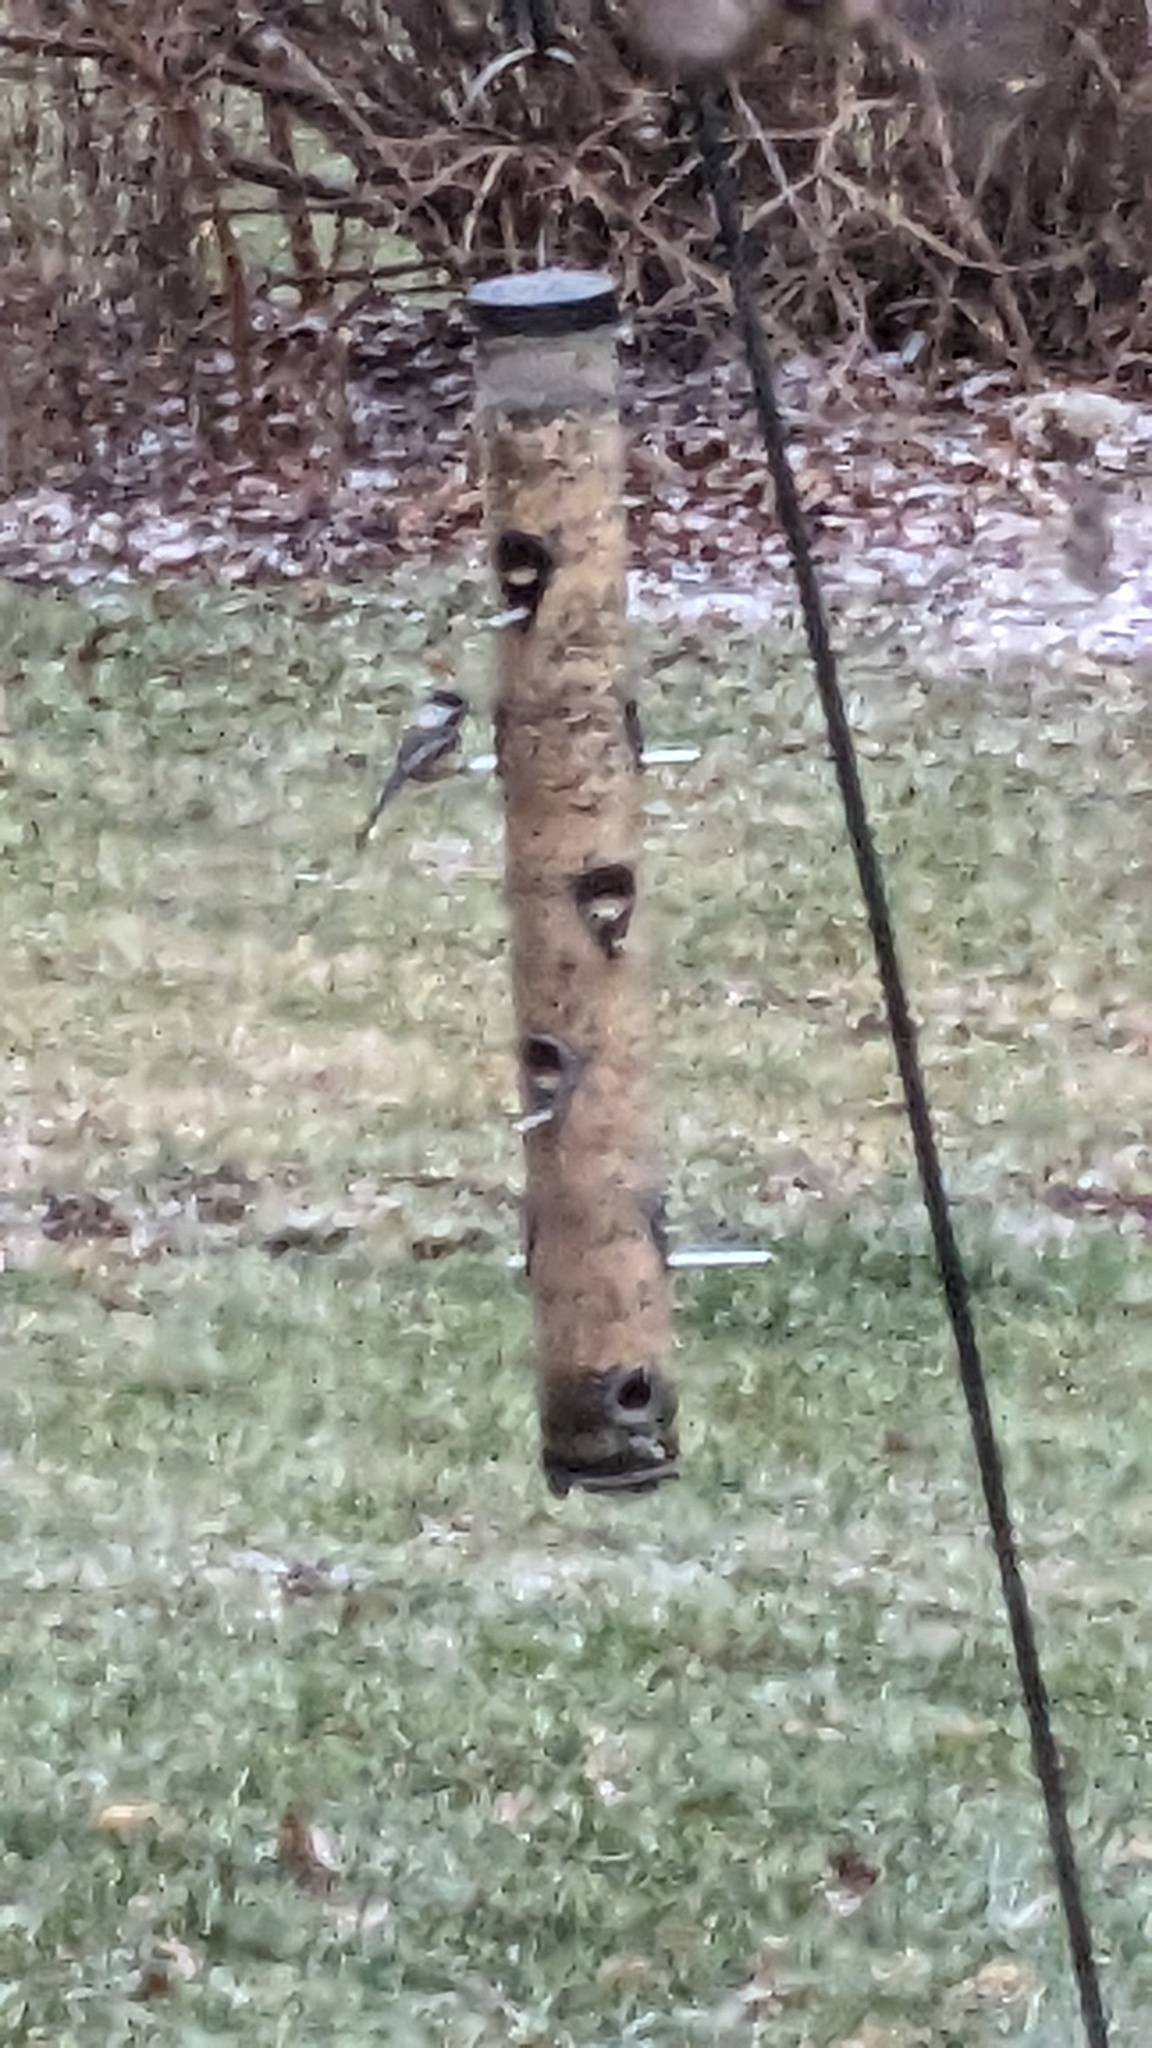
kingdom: Animalia
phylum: Chordata
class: Aves
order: Passeriformes
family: Paridae
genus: Poecile
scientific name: Poecile atricapillus
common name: Black-capped chickadee
